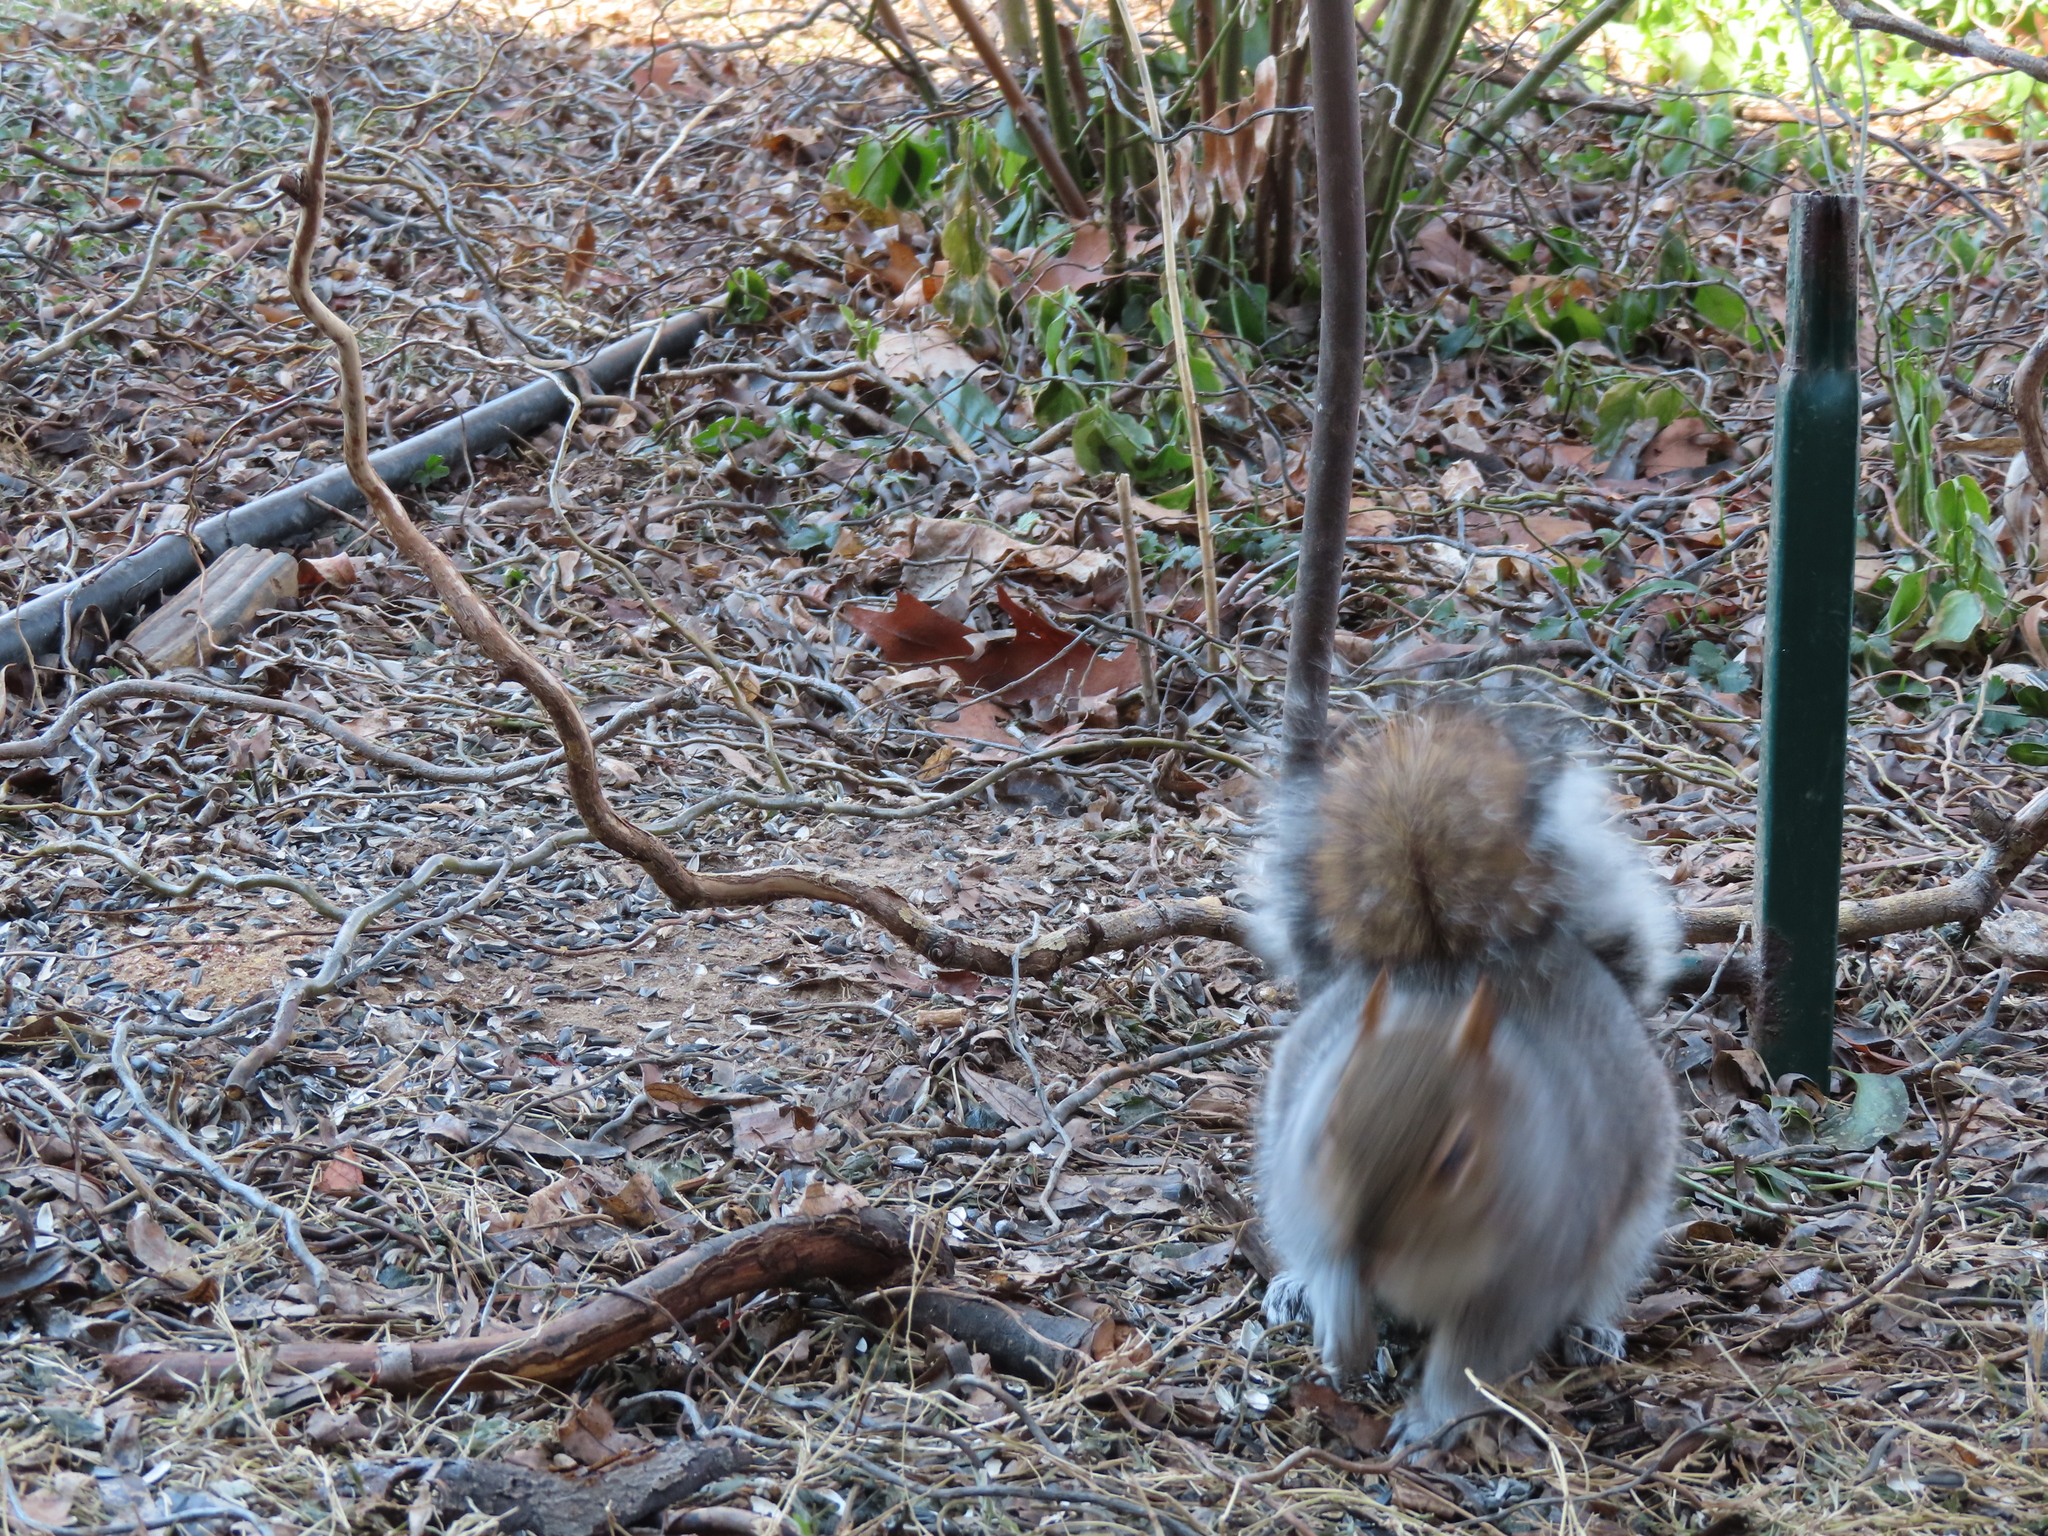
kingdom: Animalia
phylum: Chordata
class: Mammalia
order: Rodentia
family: Sciuridae
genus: Sciurus
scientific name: Sciurus carolinensis
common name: Eastern gray squirrel
